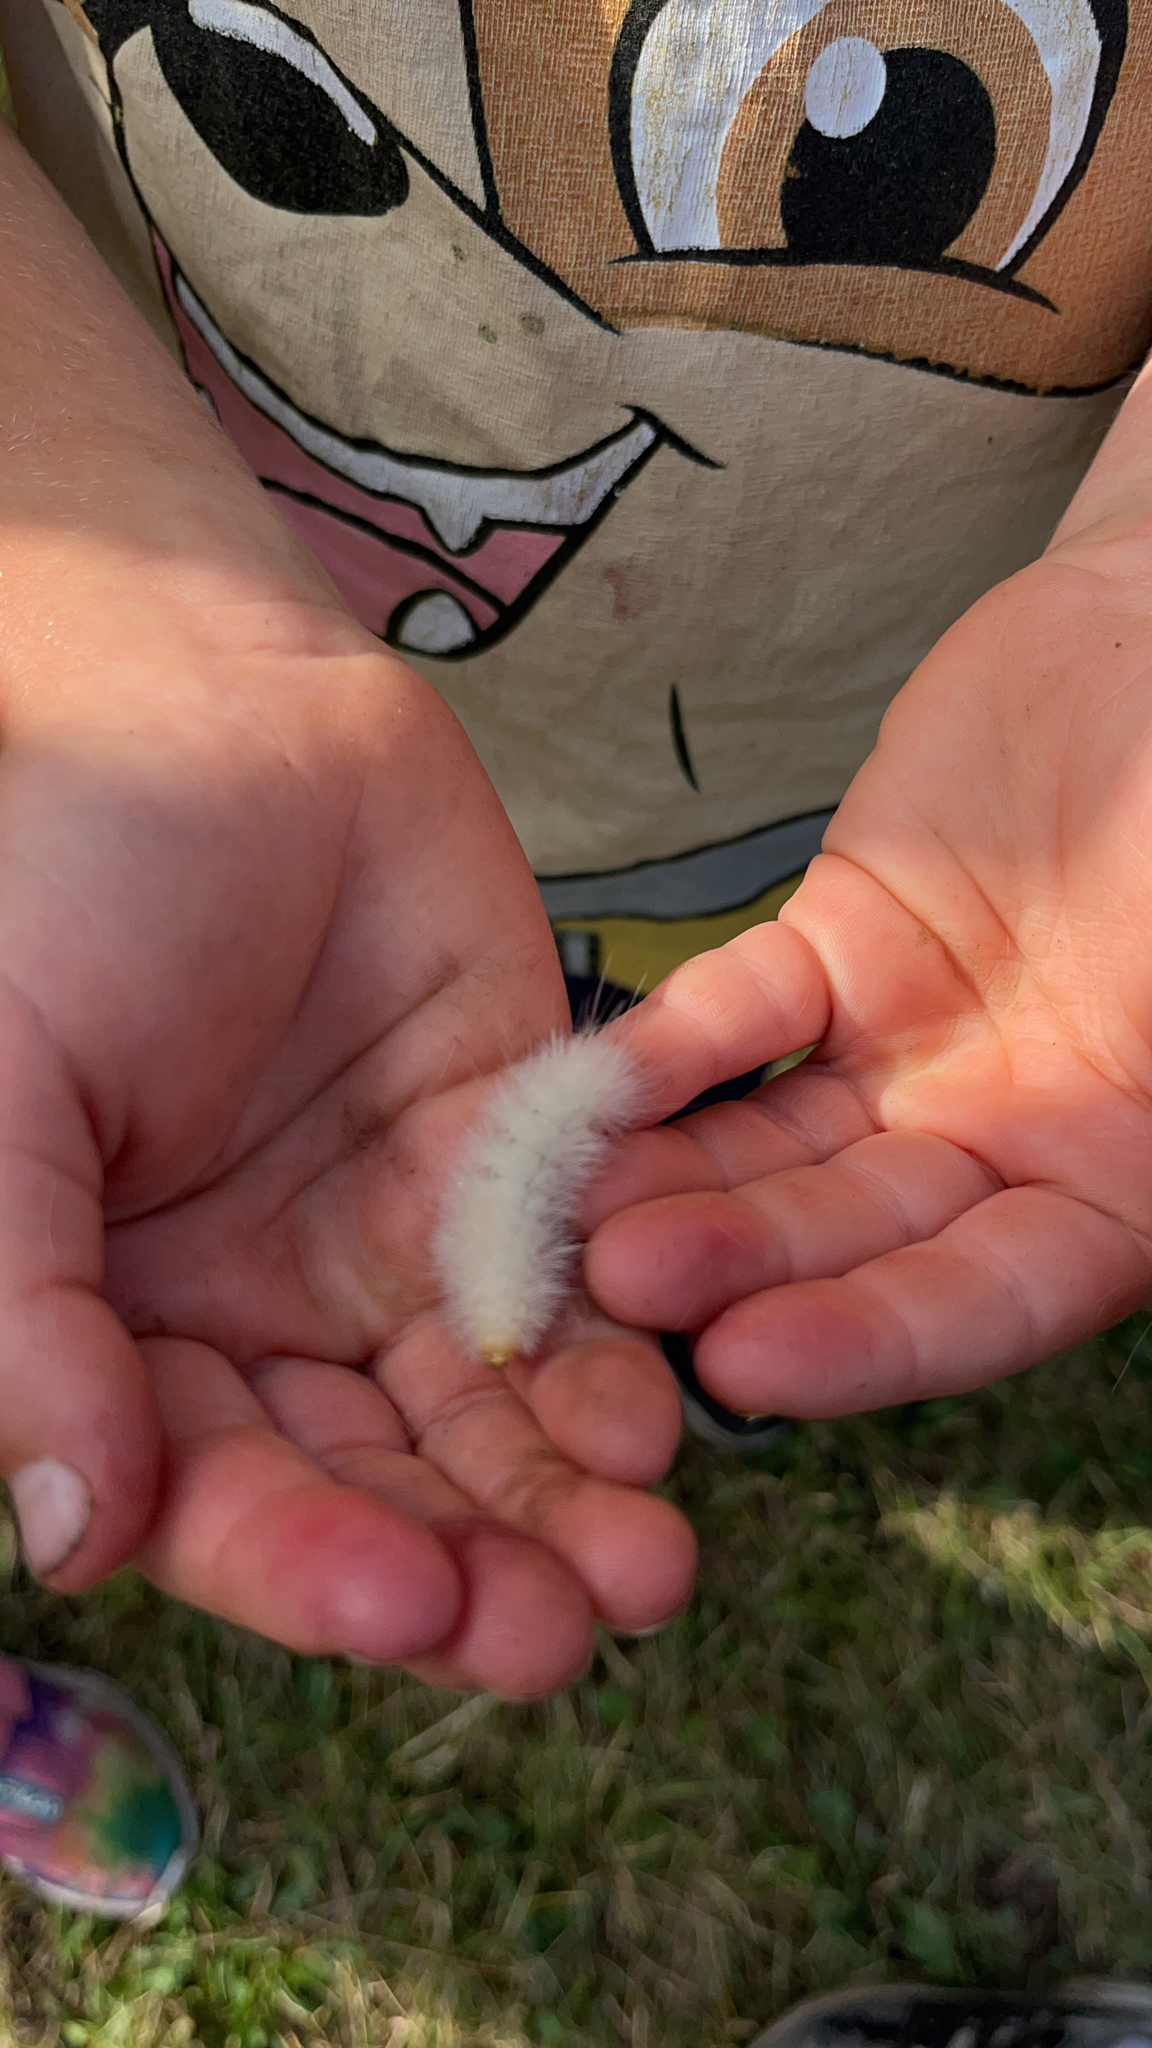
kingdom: Animalia
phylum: Arthropoda
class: Insecta
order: Lepidoptera
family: Erebidae
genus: Spilosoma
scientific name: Spilosoma virginica
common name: Virginia tiger moth
